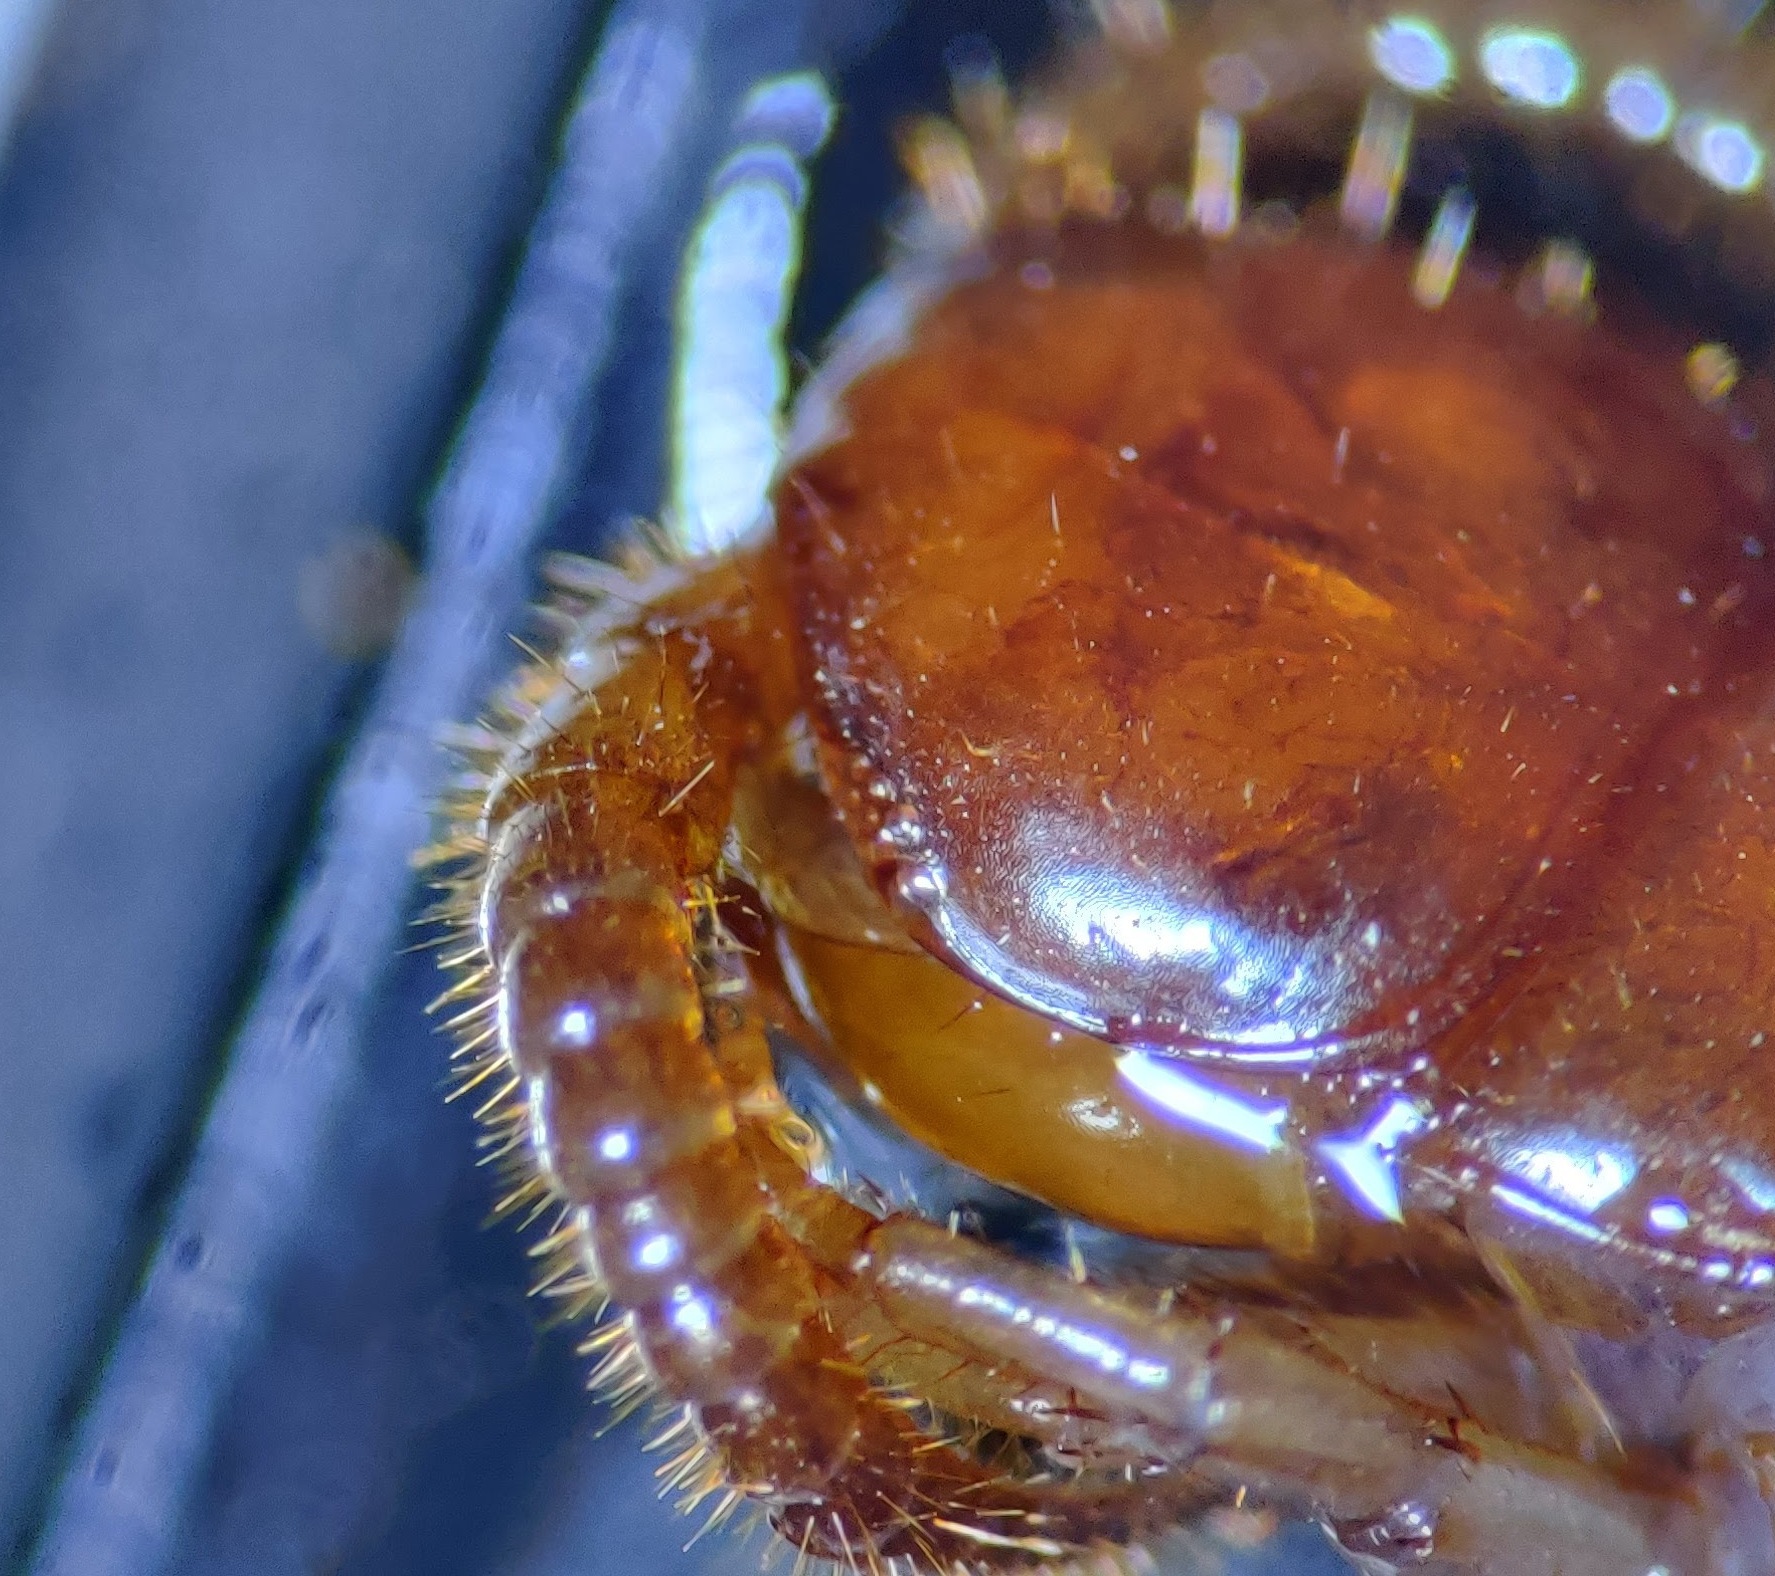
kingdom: Animalia
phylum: Arthropoda
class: Chilopoda
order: Lithobiomorpha
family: Lithobiidae
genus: Lithobius
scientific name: Lithobius forficatus
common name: Centipede
